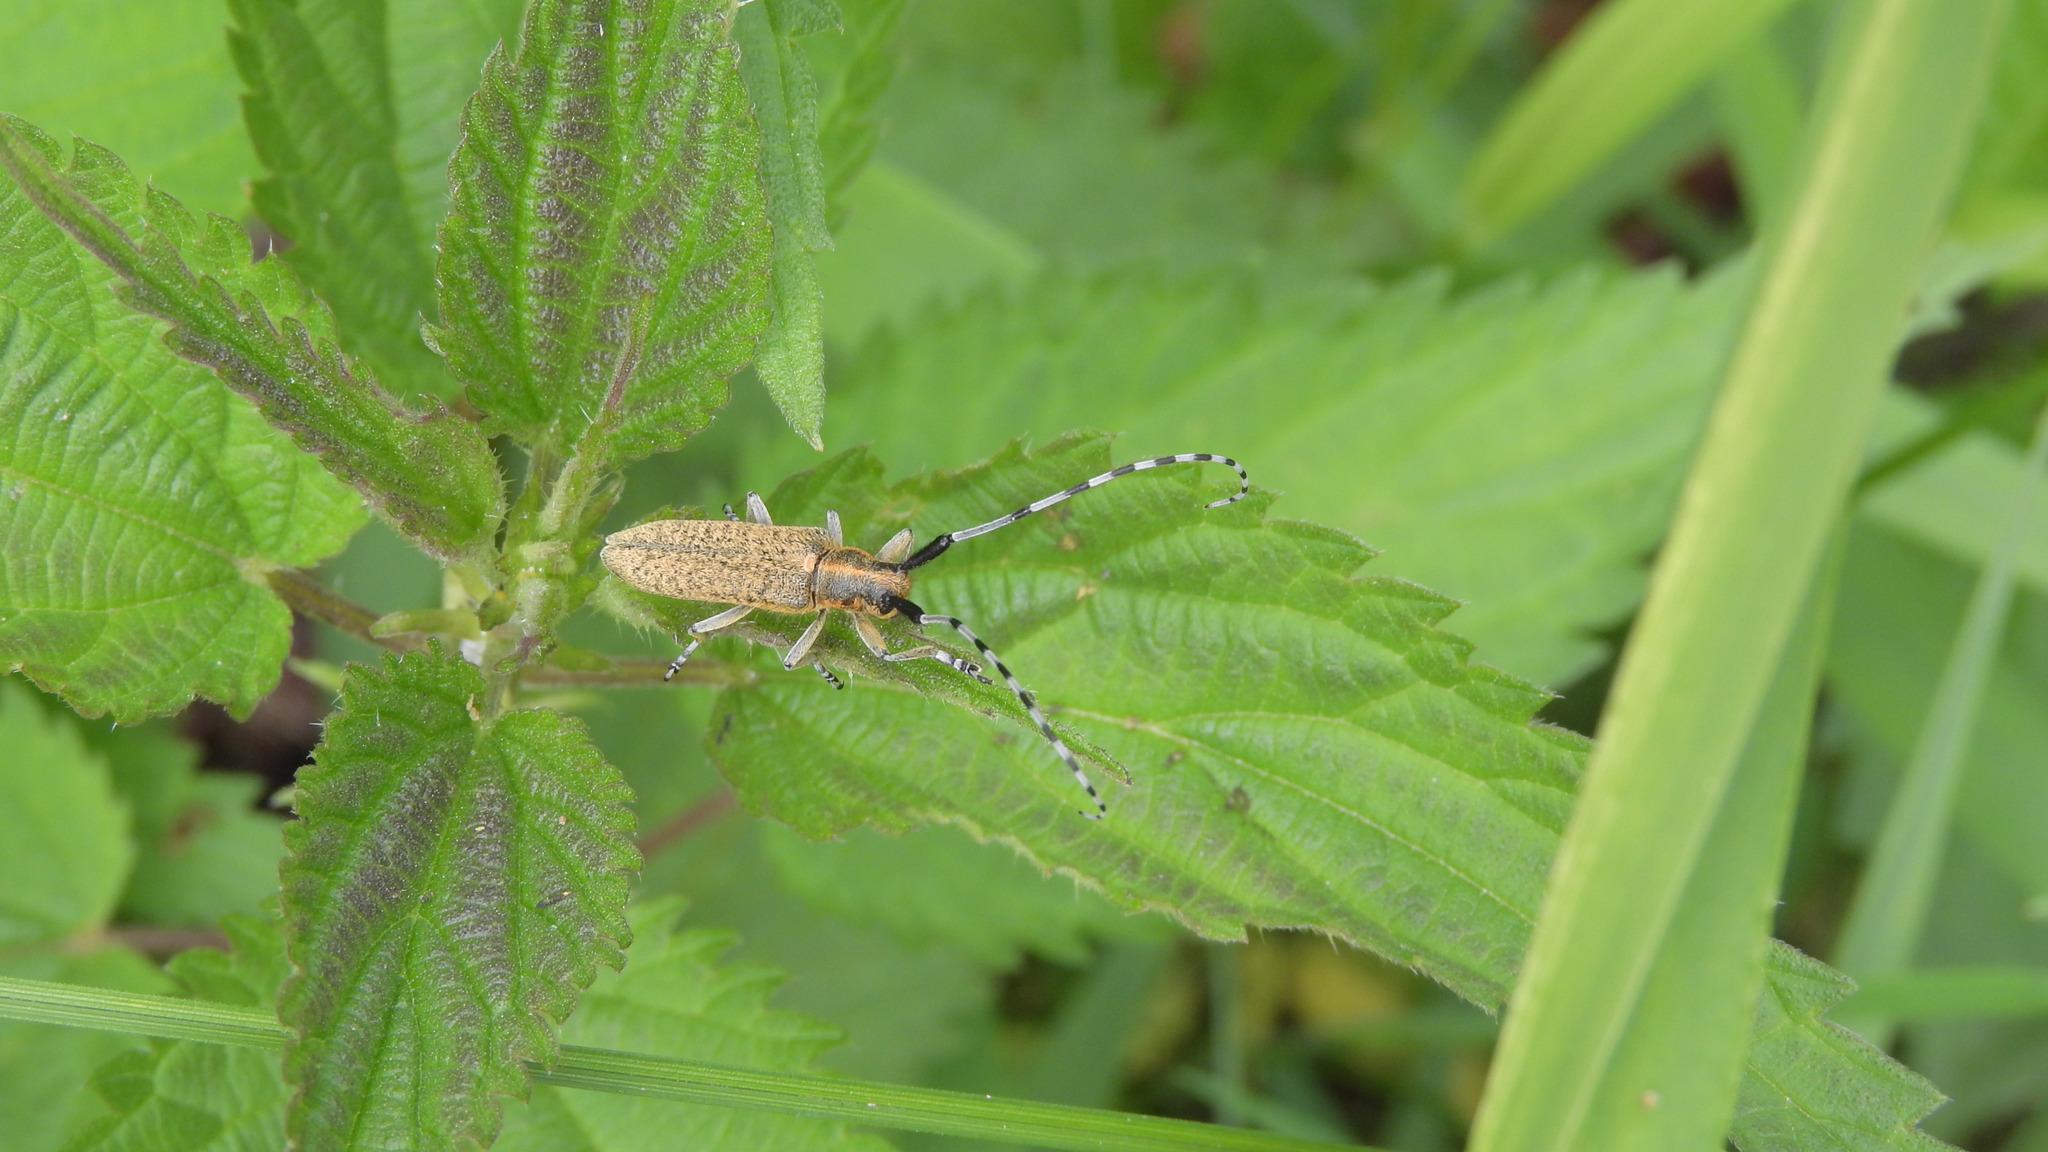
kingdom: Animalia
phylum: Arthropoda
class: Insecta
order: Coleoptera
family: Cerambycidae
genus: Agapanthia
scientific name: Agapanthia villosoviridescens
